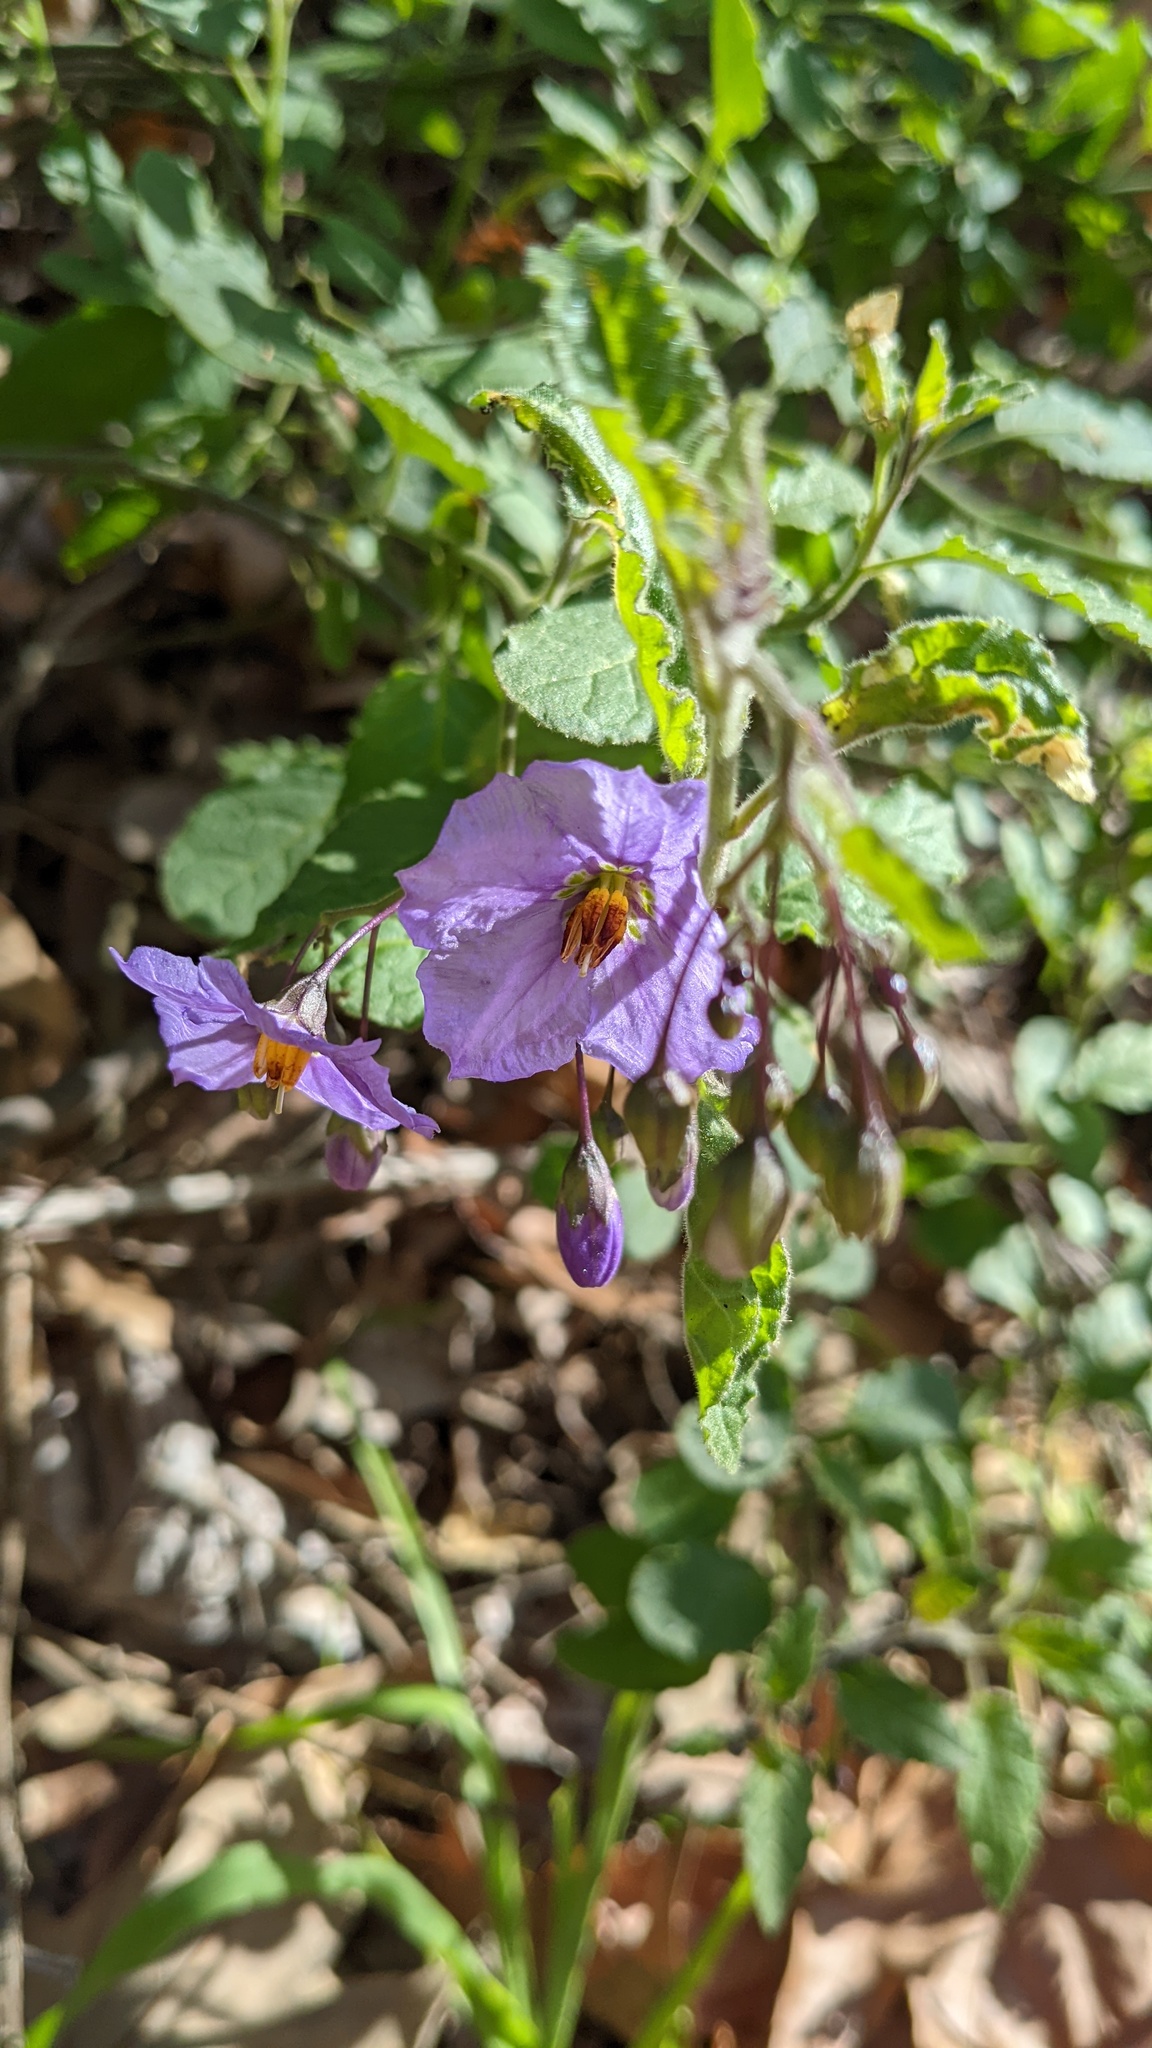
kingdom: Plantae
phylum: Tracheophyta
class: Magnoliopsida
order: Solanales
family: Solanaceae
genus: Solanum
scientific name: Solanum umbelliferum
